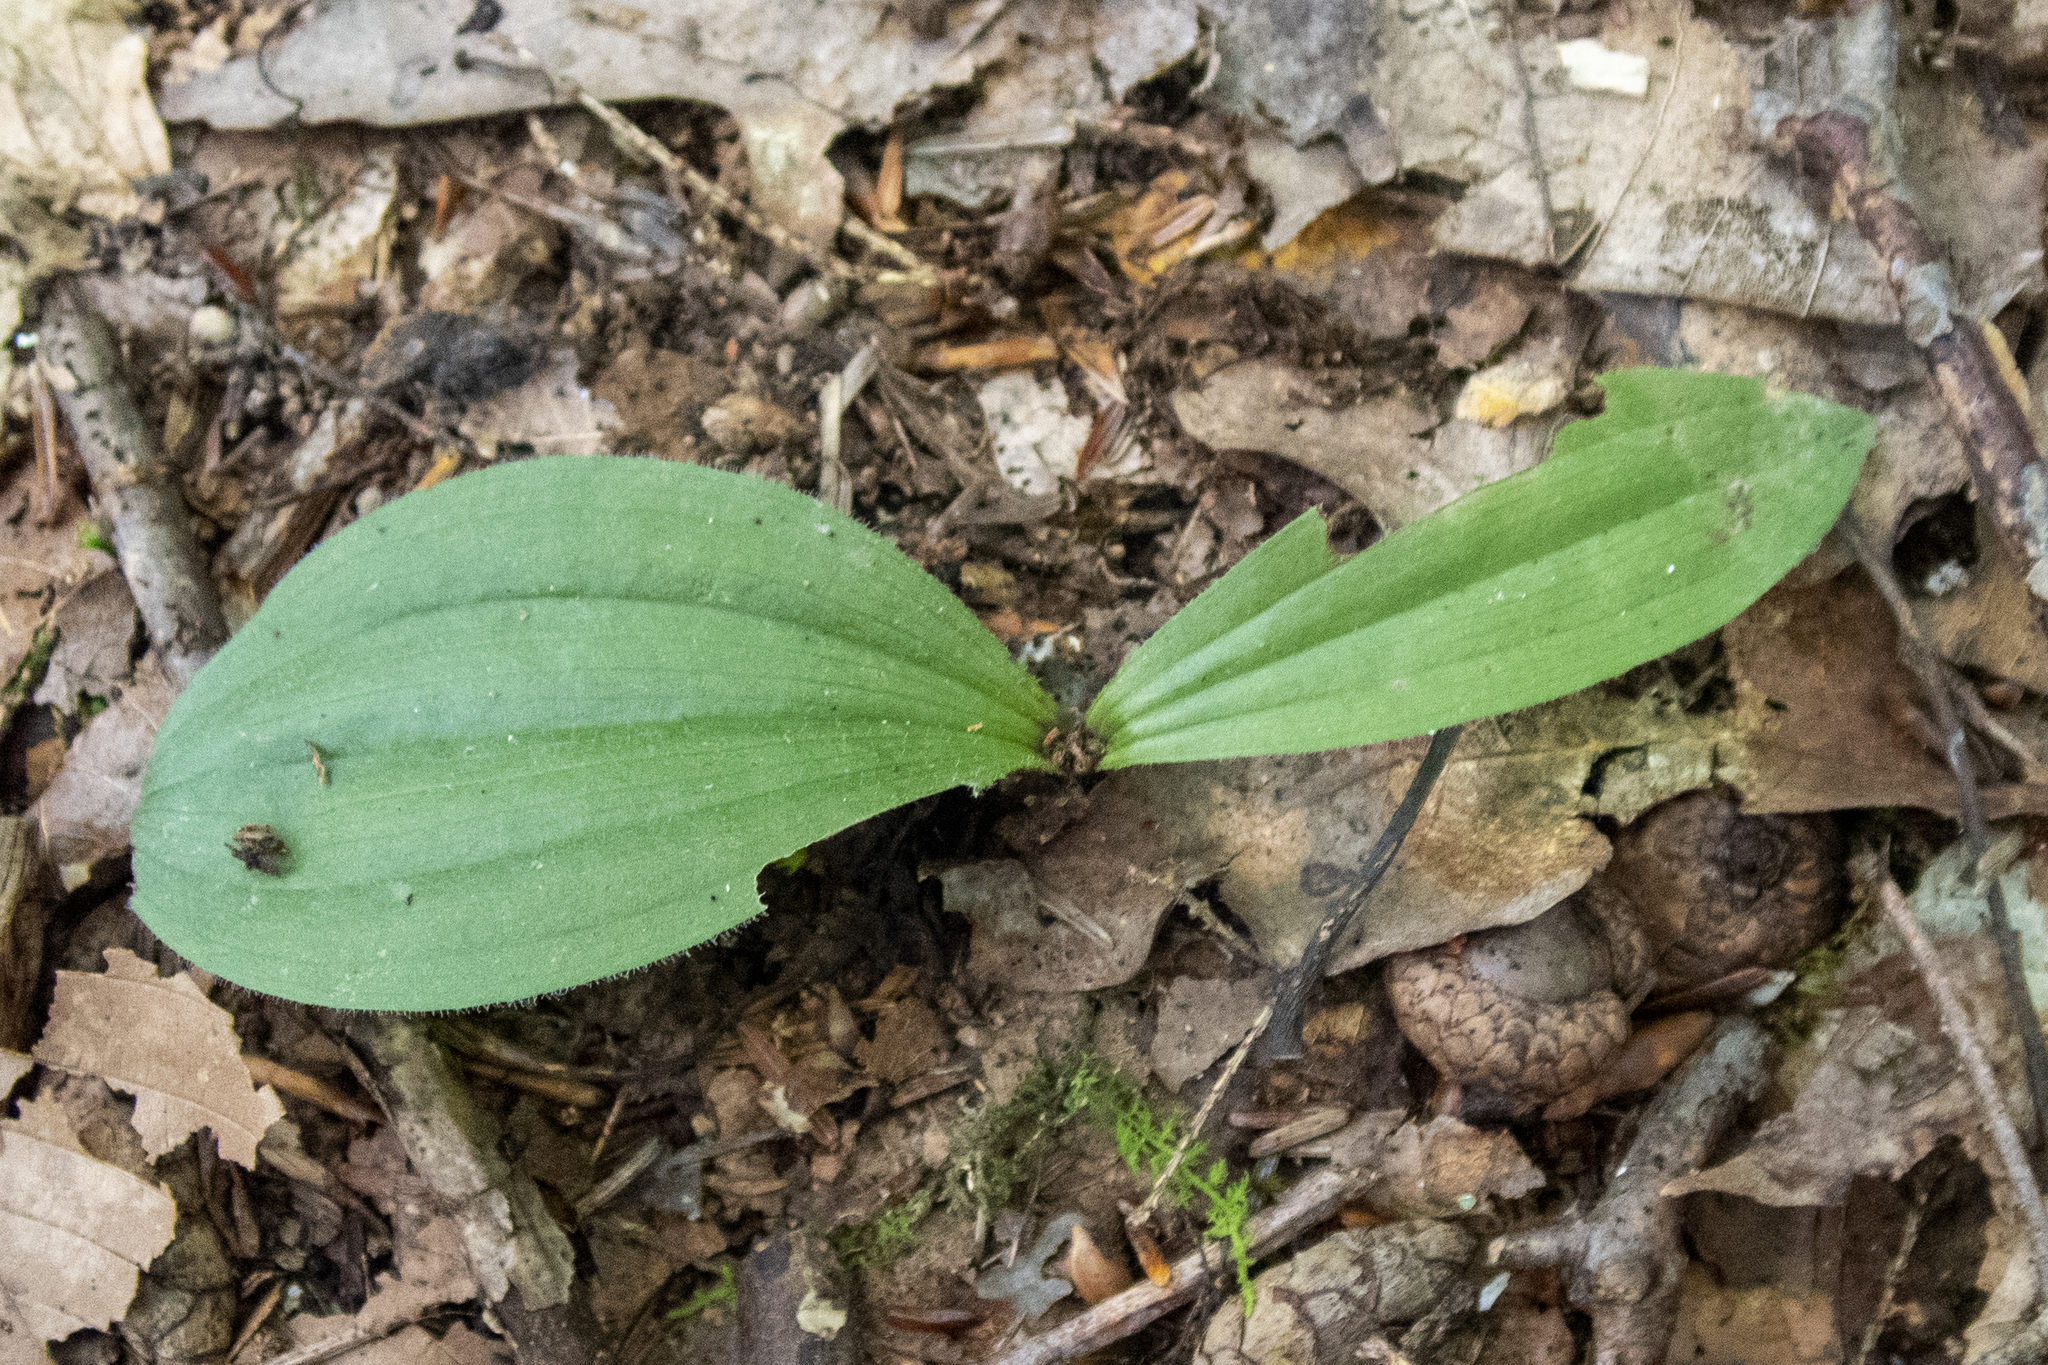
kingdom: Plantae
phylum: Tracheophyta
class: Liliopsida
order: Asparagales
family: Orchidaceae
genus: Cypripedium
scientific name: Cypripedium acaule
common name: Pink lady's-slipper
